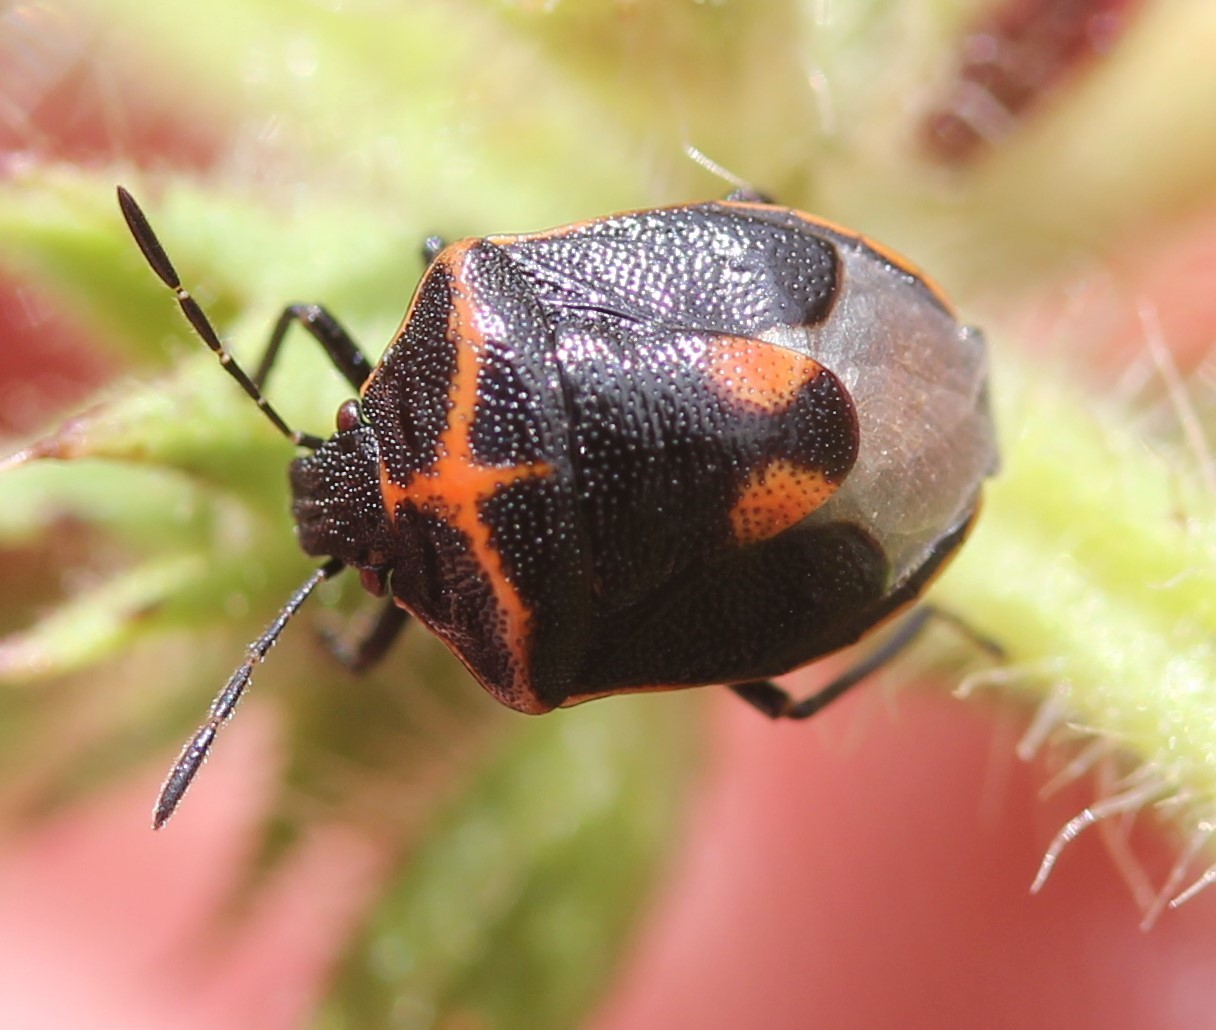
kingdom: Animalia
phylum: Arthropoda
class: Insecta
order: Hemiptera
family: Pentatomidae
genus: Cosmopepla
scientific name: Cosmopepla lintneriana
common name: Twice-stabbed stink bug
